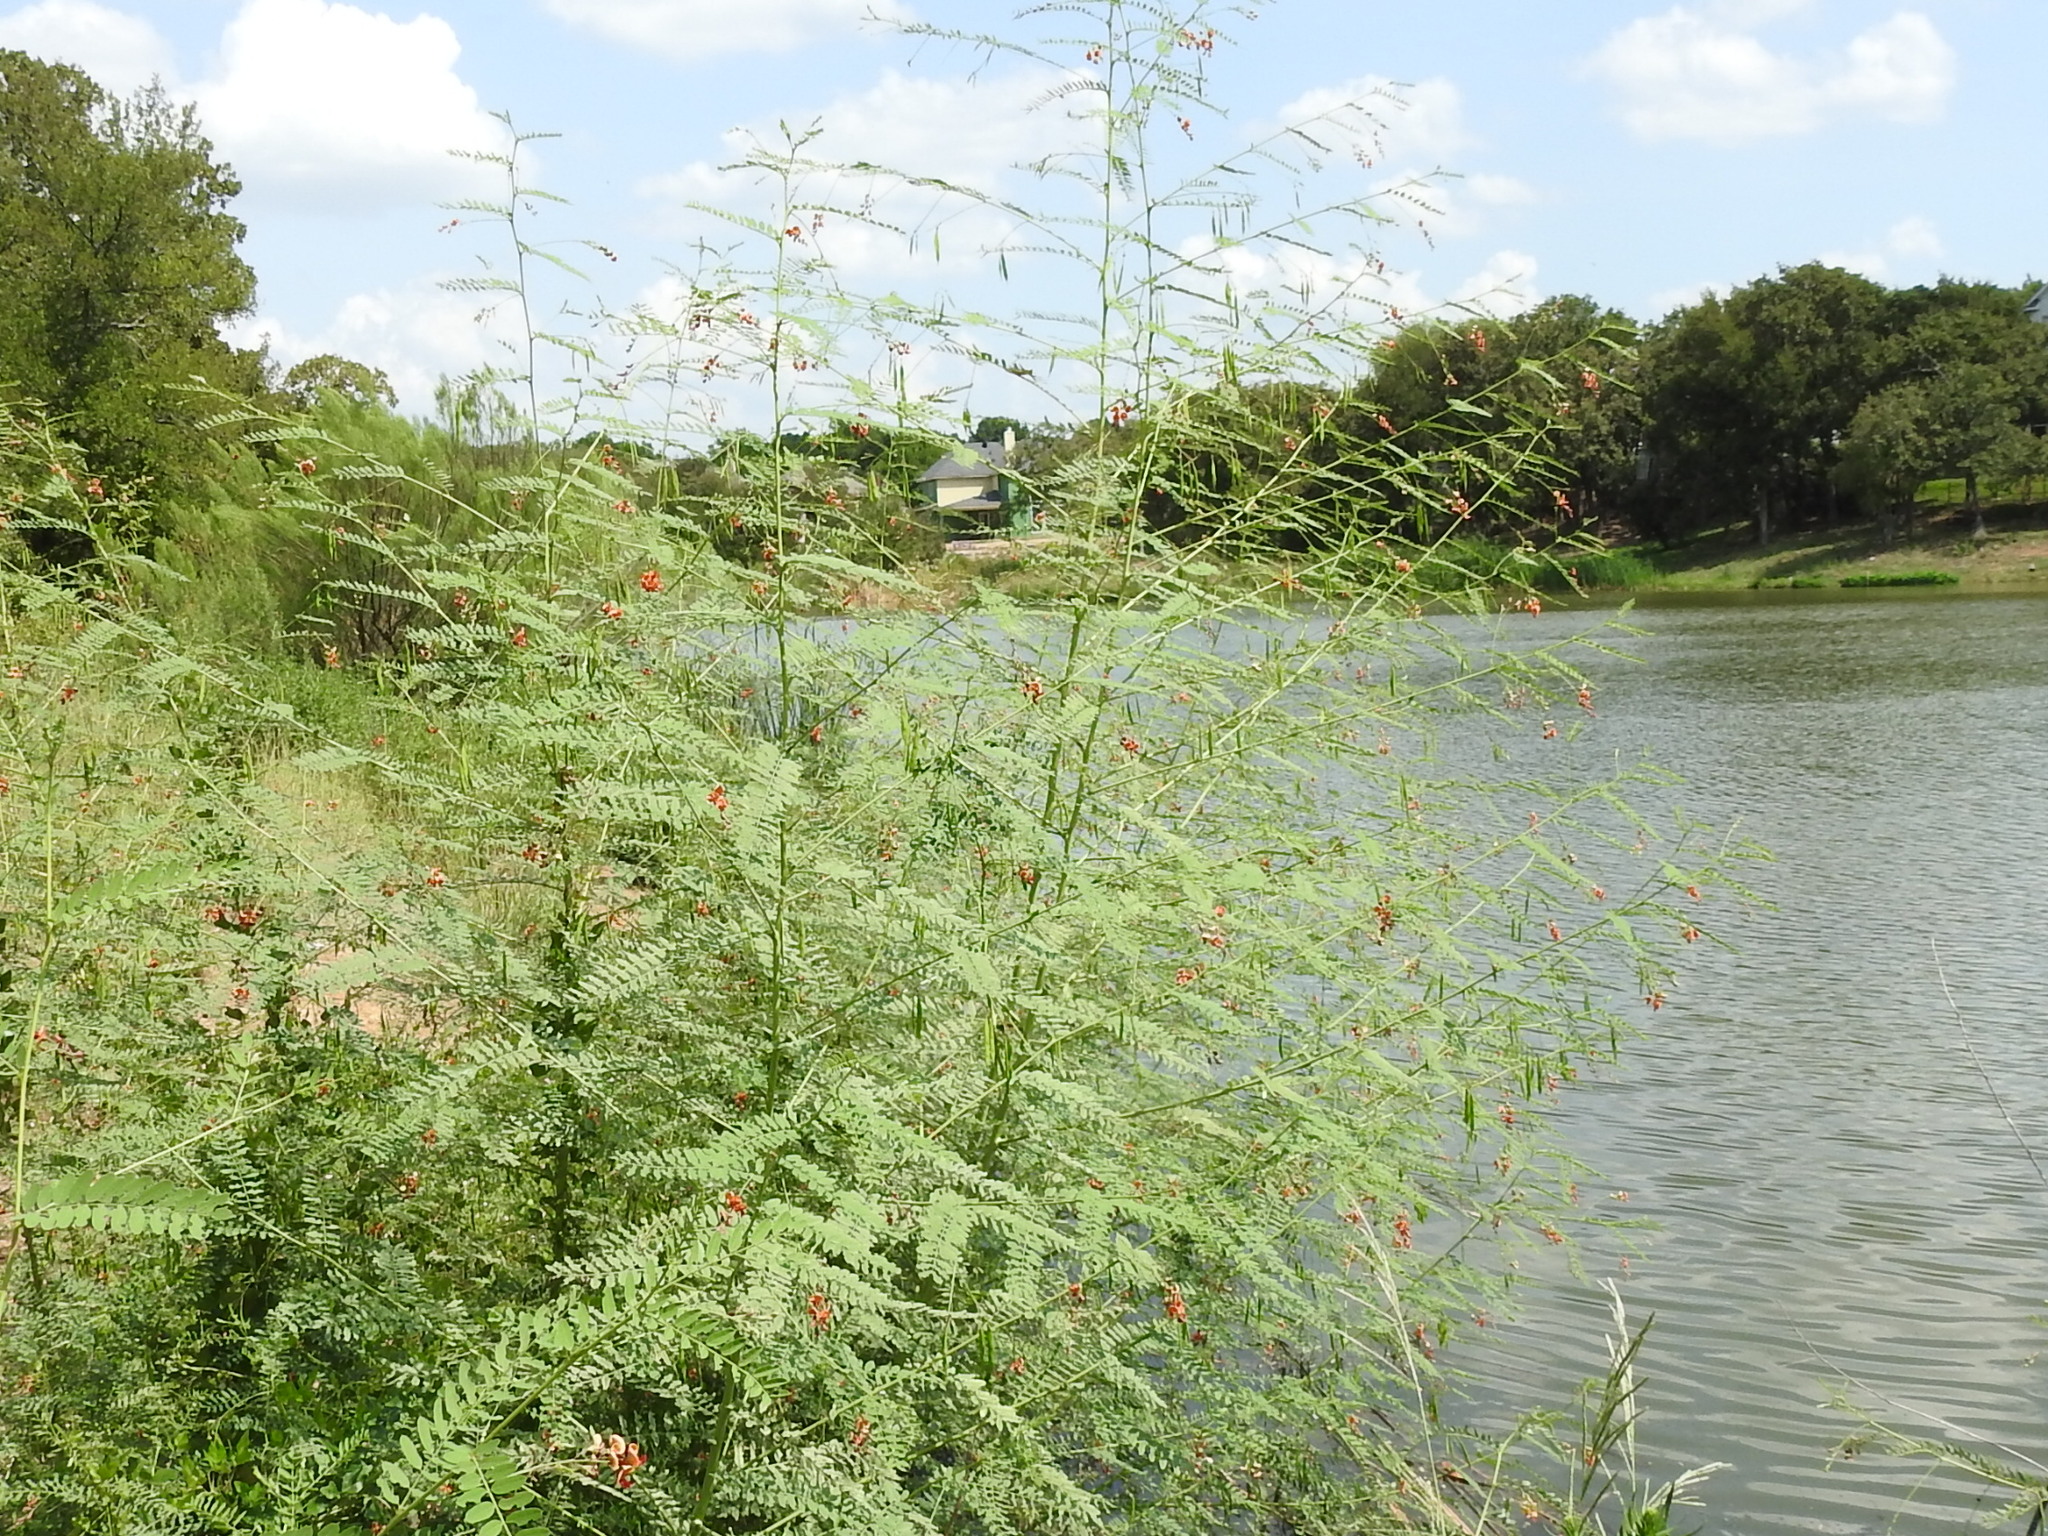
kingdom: Plantae
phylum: Tracheophyta
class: Magnoliopsida
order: Fabales
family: Fabaceae
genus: Sesbania
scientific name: Sesbania vesicaria
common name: Bagpod
